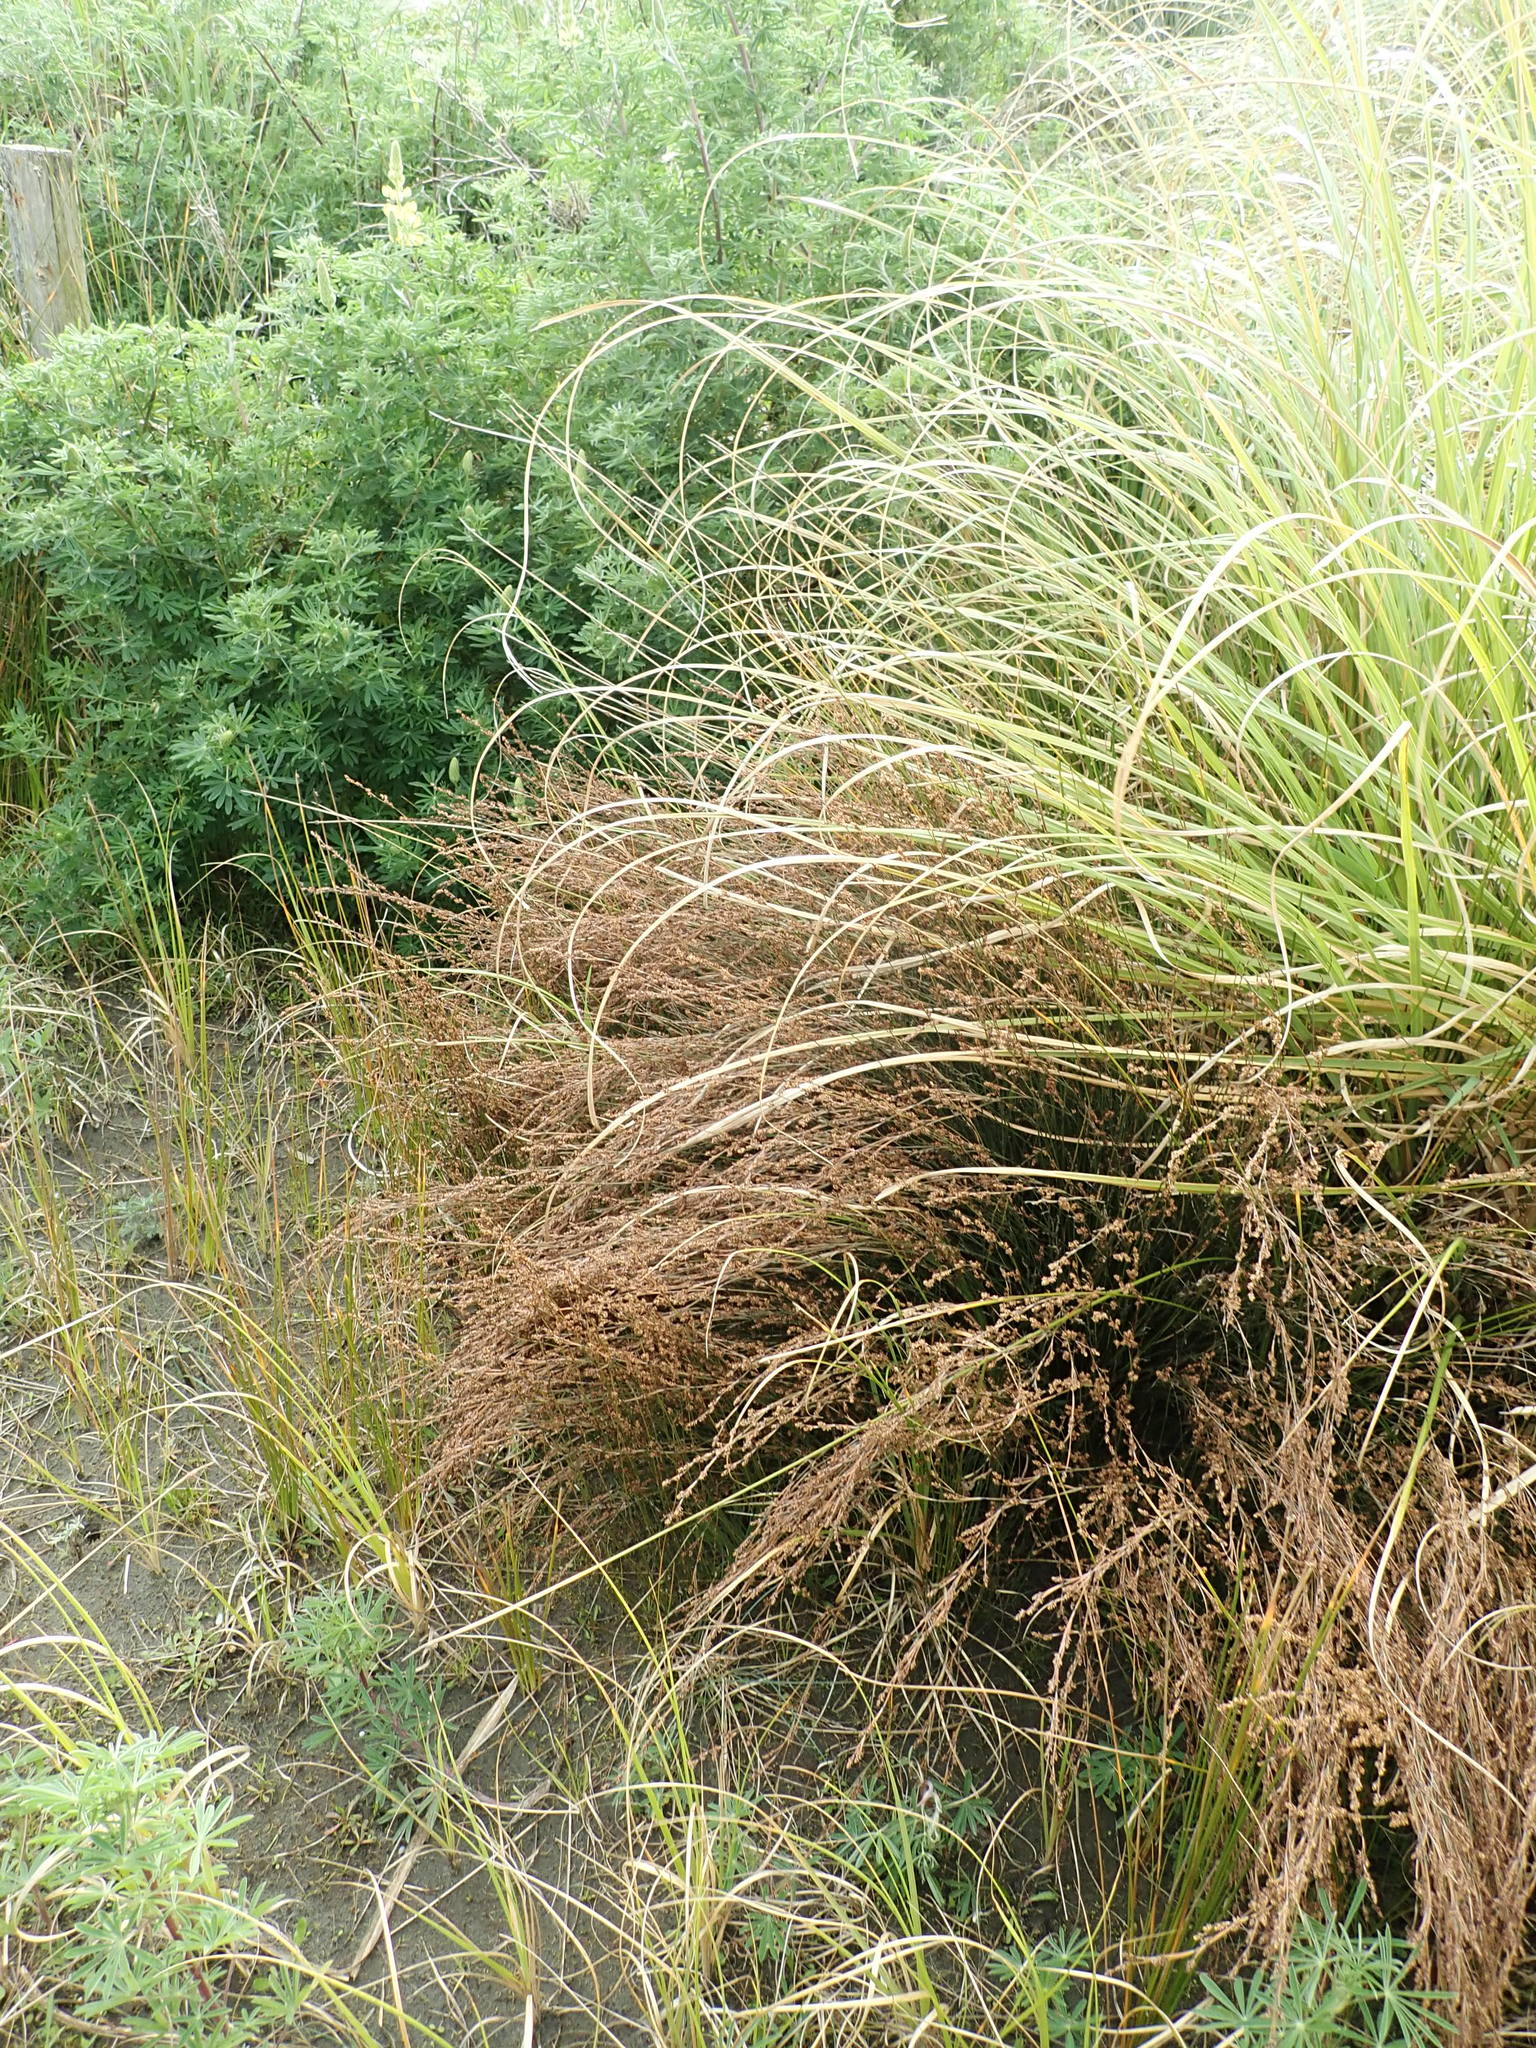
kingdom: Plantae
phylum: Tracheophyta
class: Liliopsida
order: Poales
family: Restionaceae
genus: Apodasmia
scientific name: Apodasmia similis
